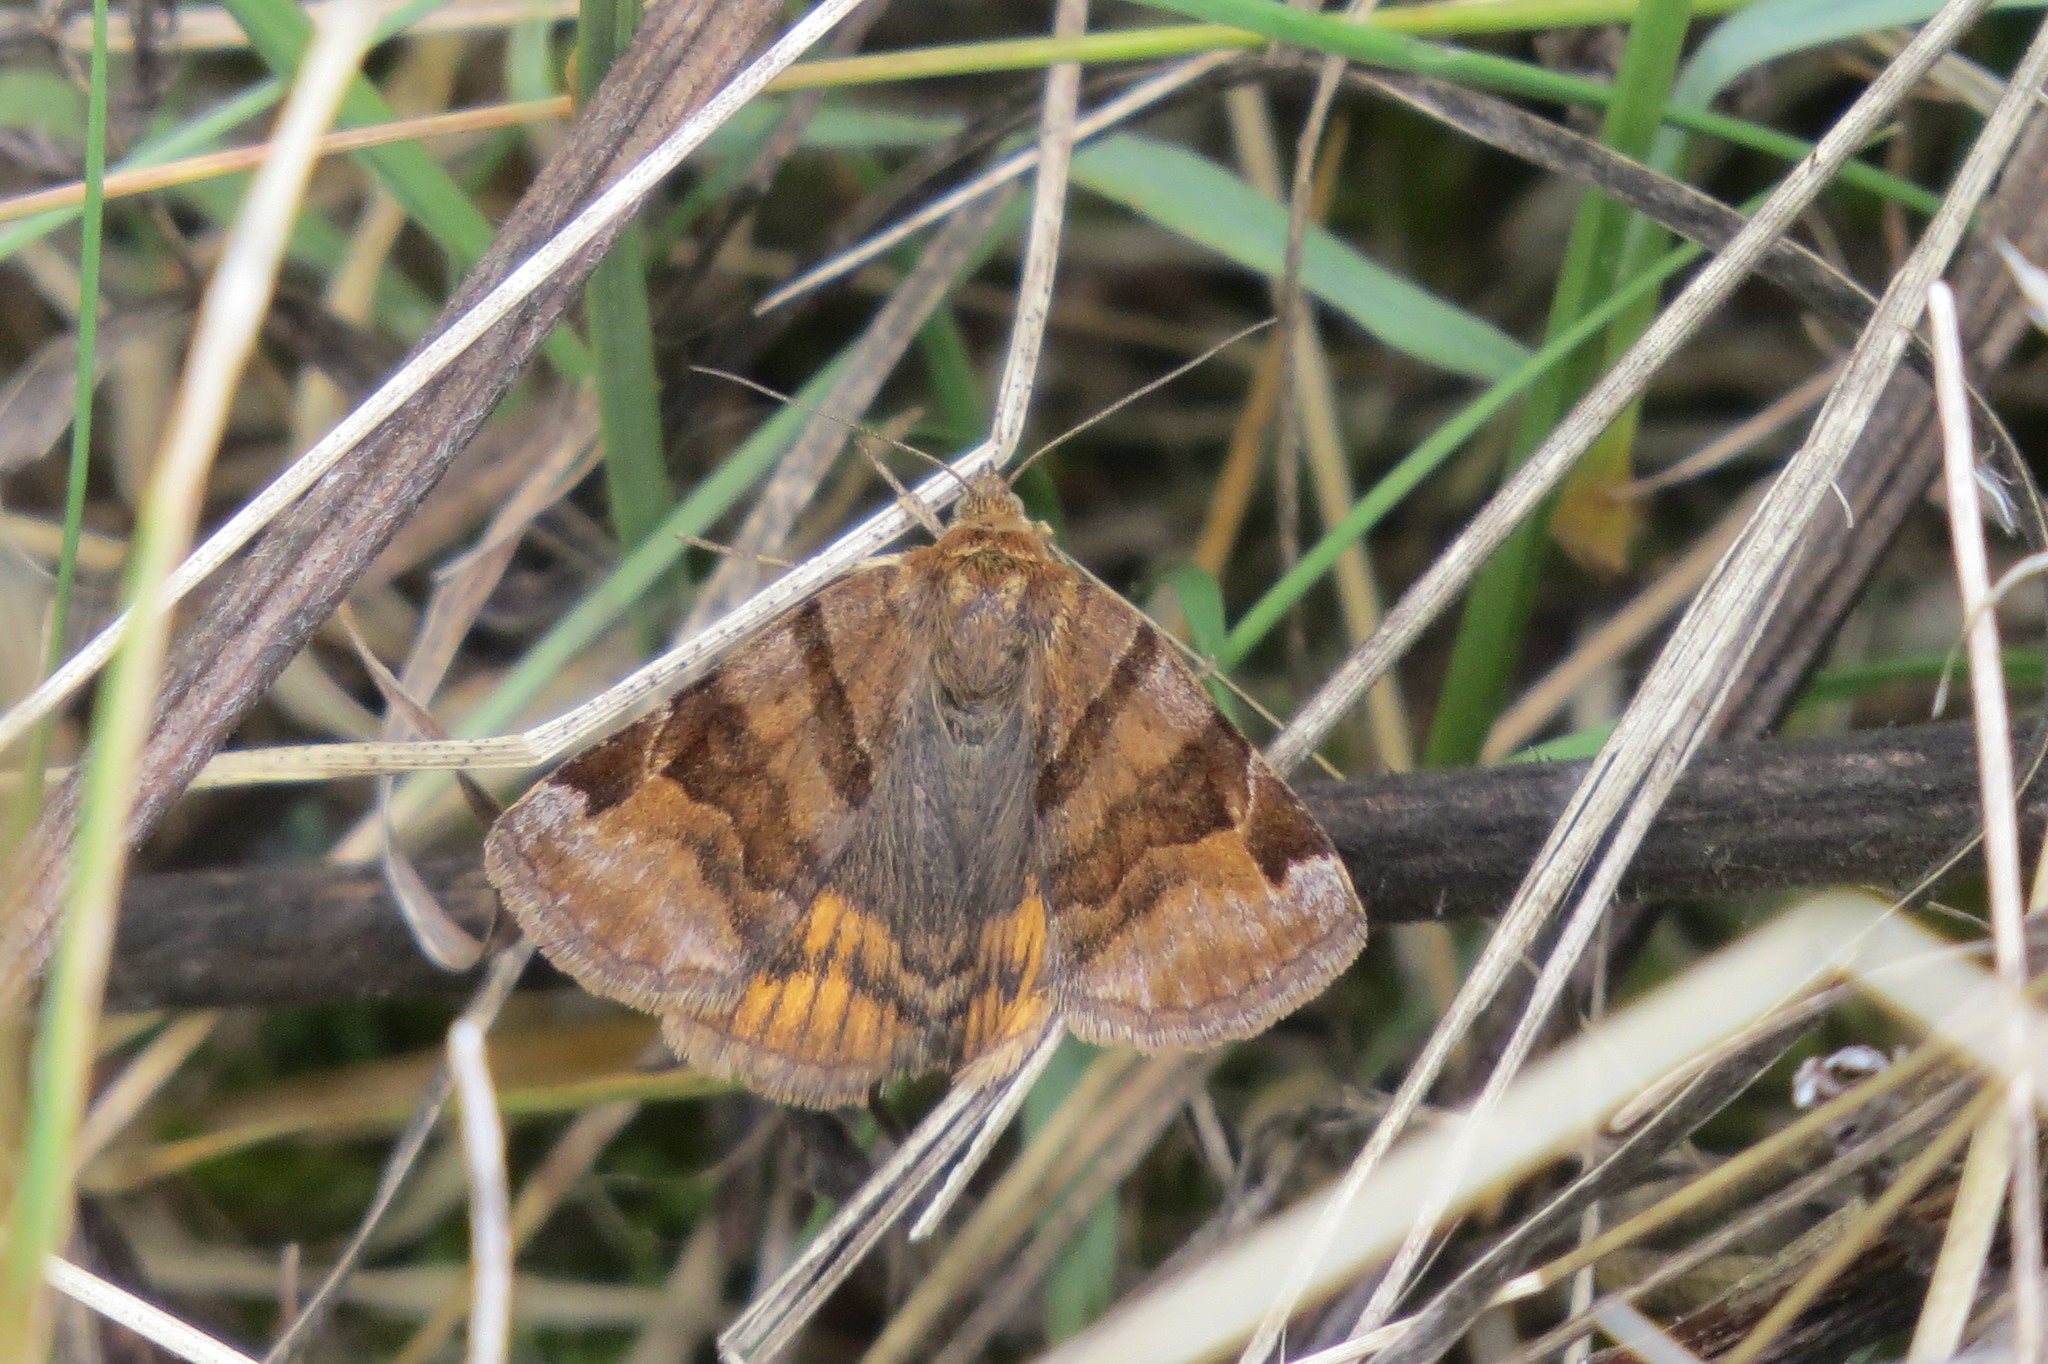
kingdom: Animalia
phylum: Arthropoda
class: Insecta
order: Lepidoptera
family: Erebidae
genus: Euclidia
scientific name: Euclidia glyphica
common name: Burnet companion
